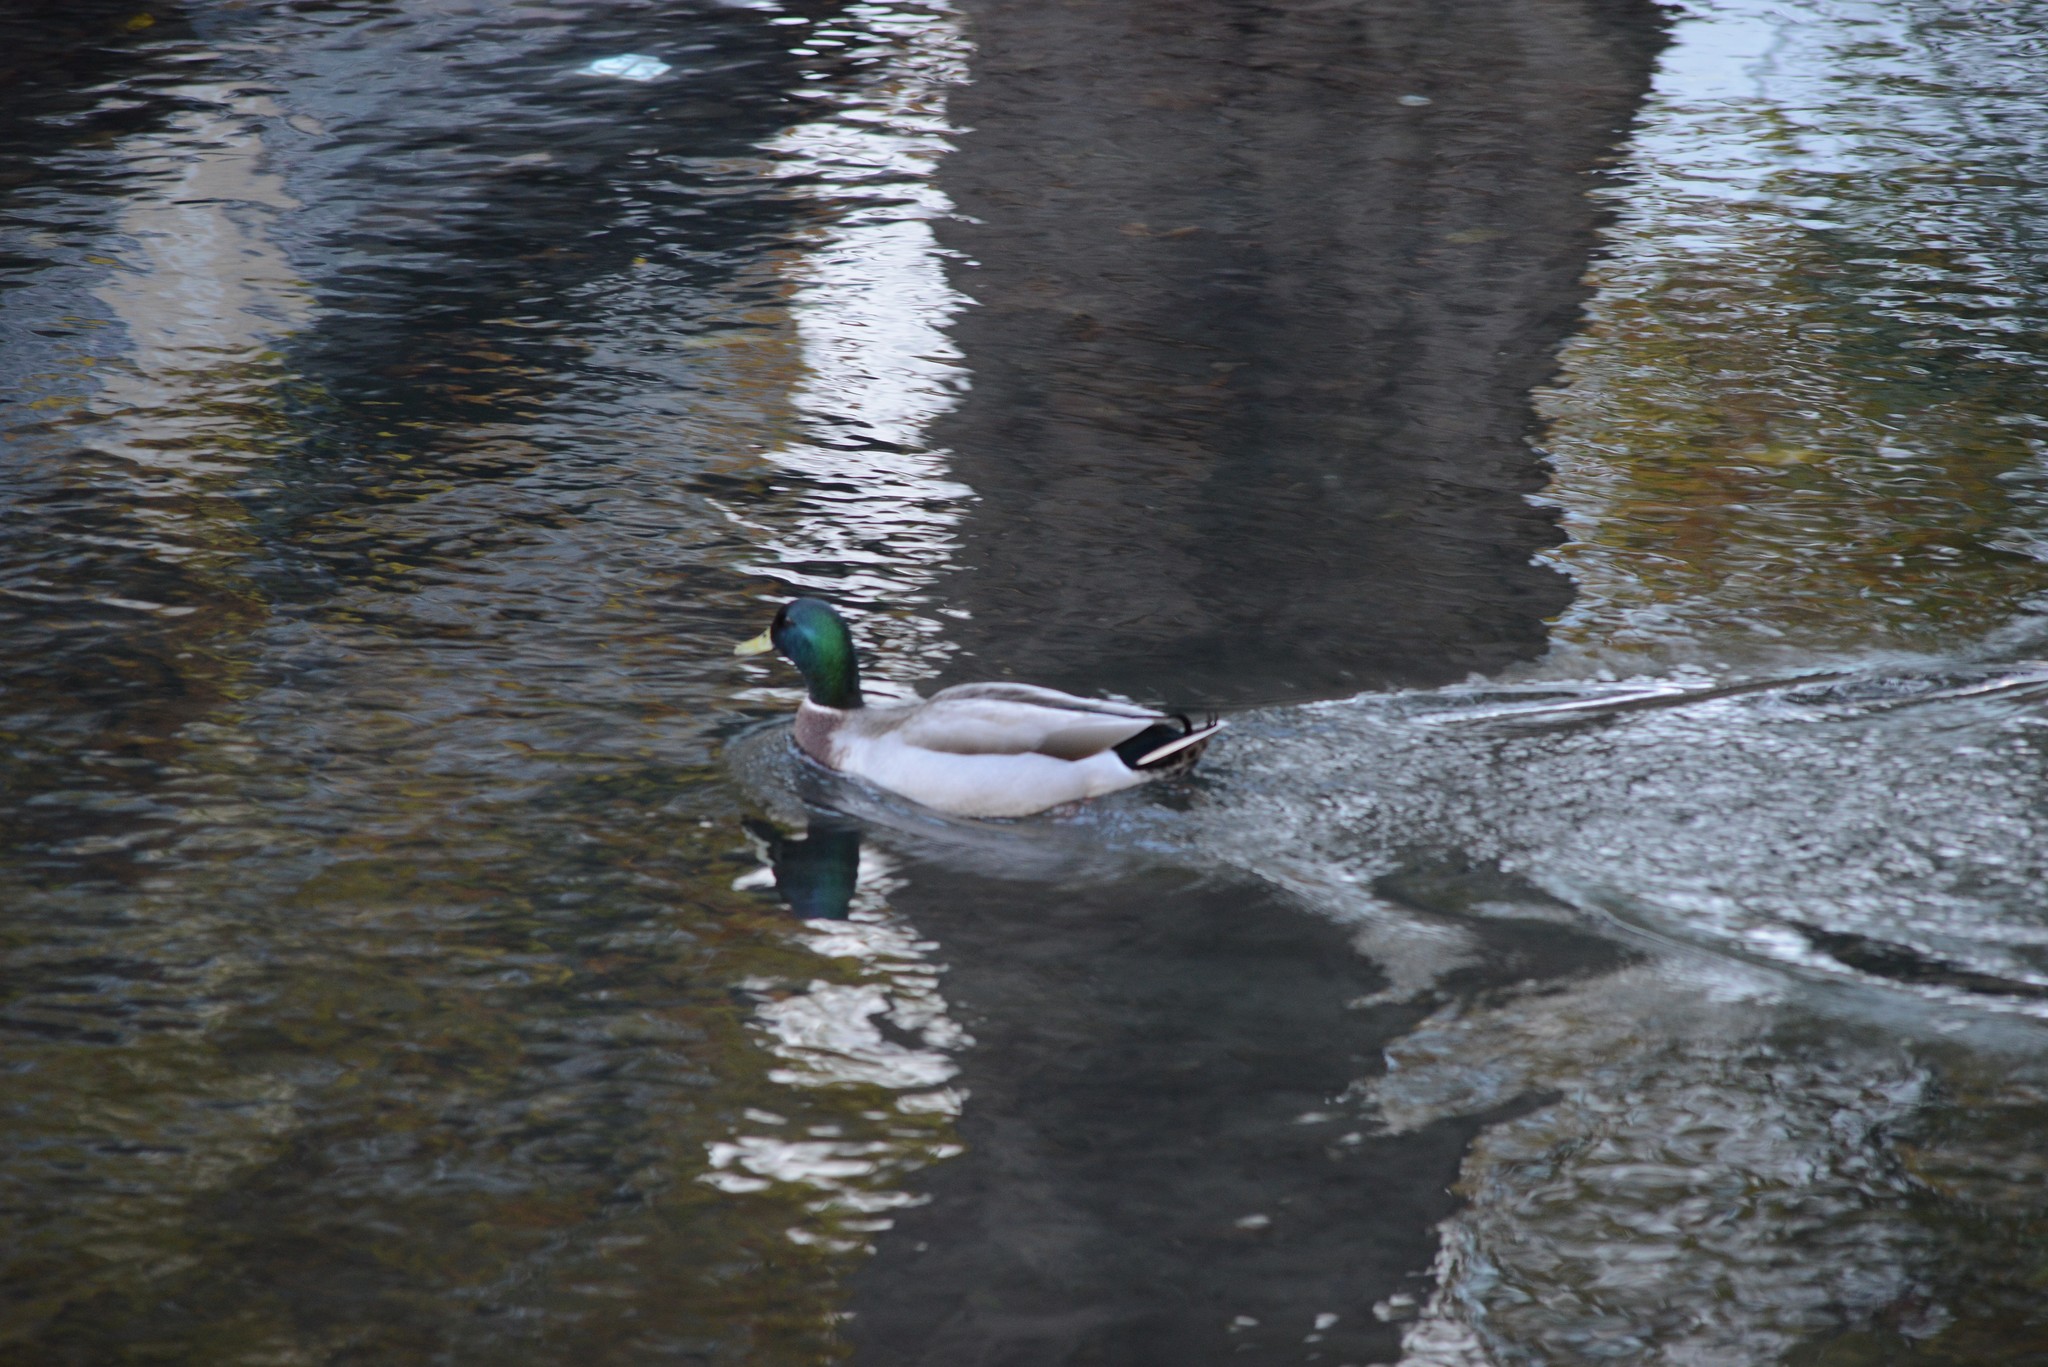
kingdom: Animalia
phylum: Chordata
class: Aves
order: Anseriformes
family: Anatidae
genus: Anas
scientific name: Anas platyrhynchos
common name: Mallard
